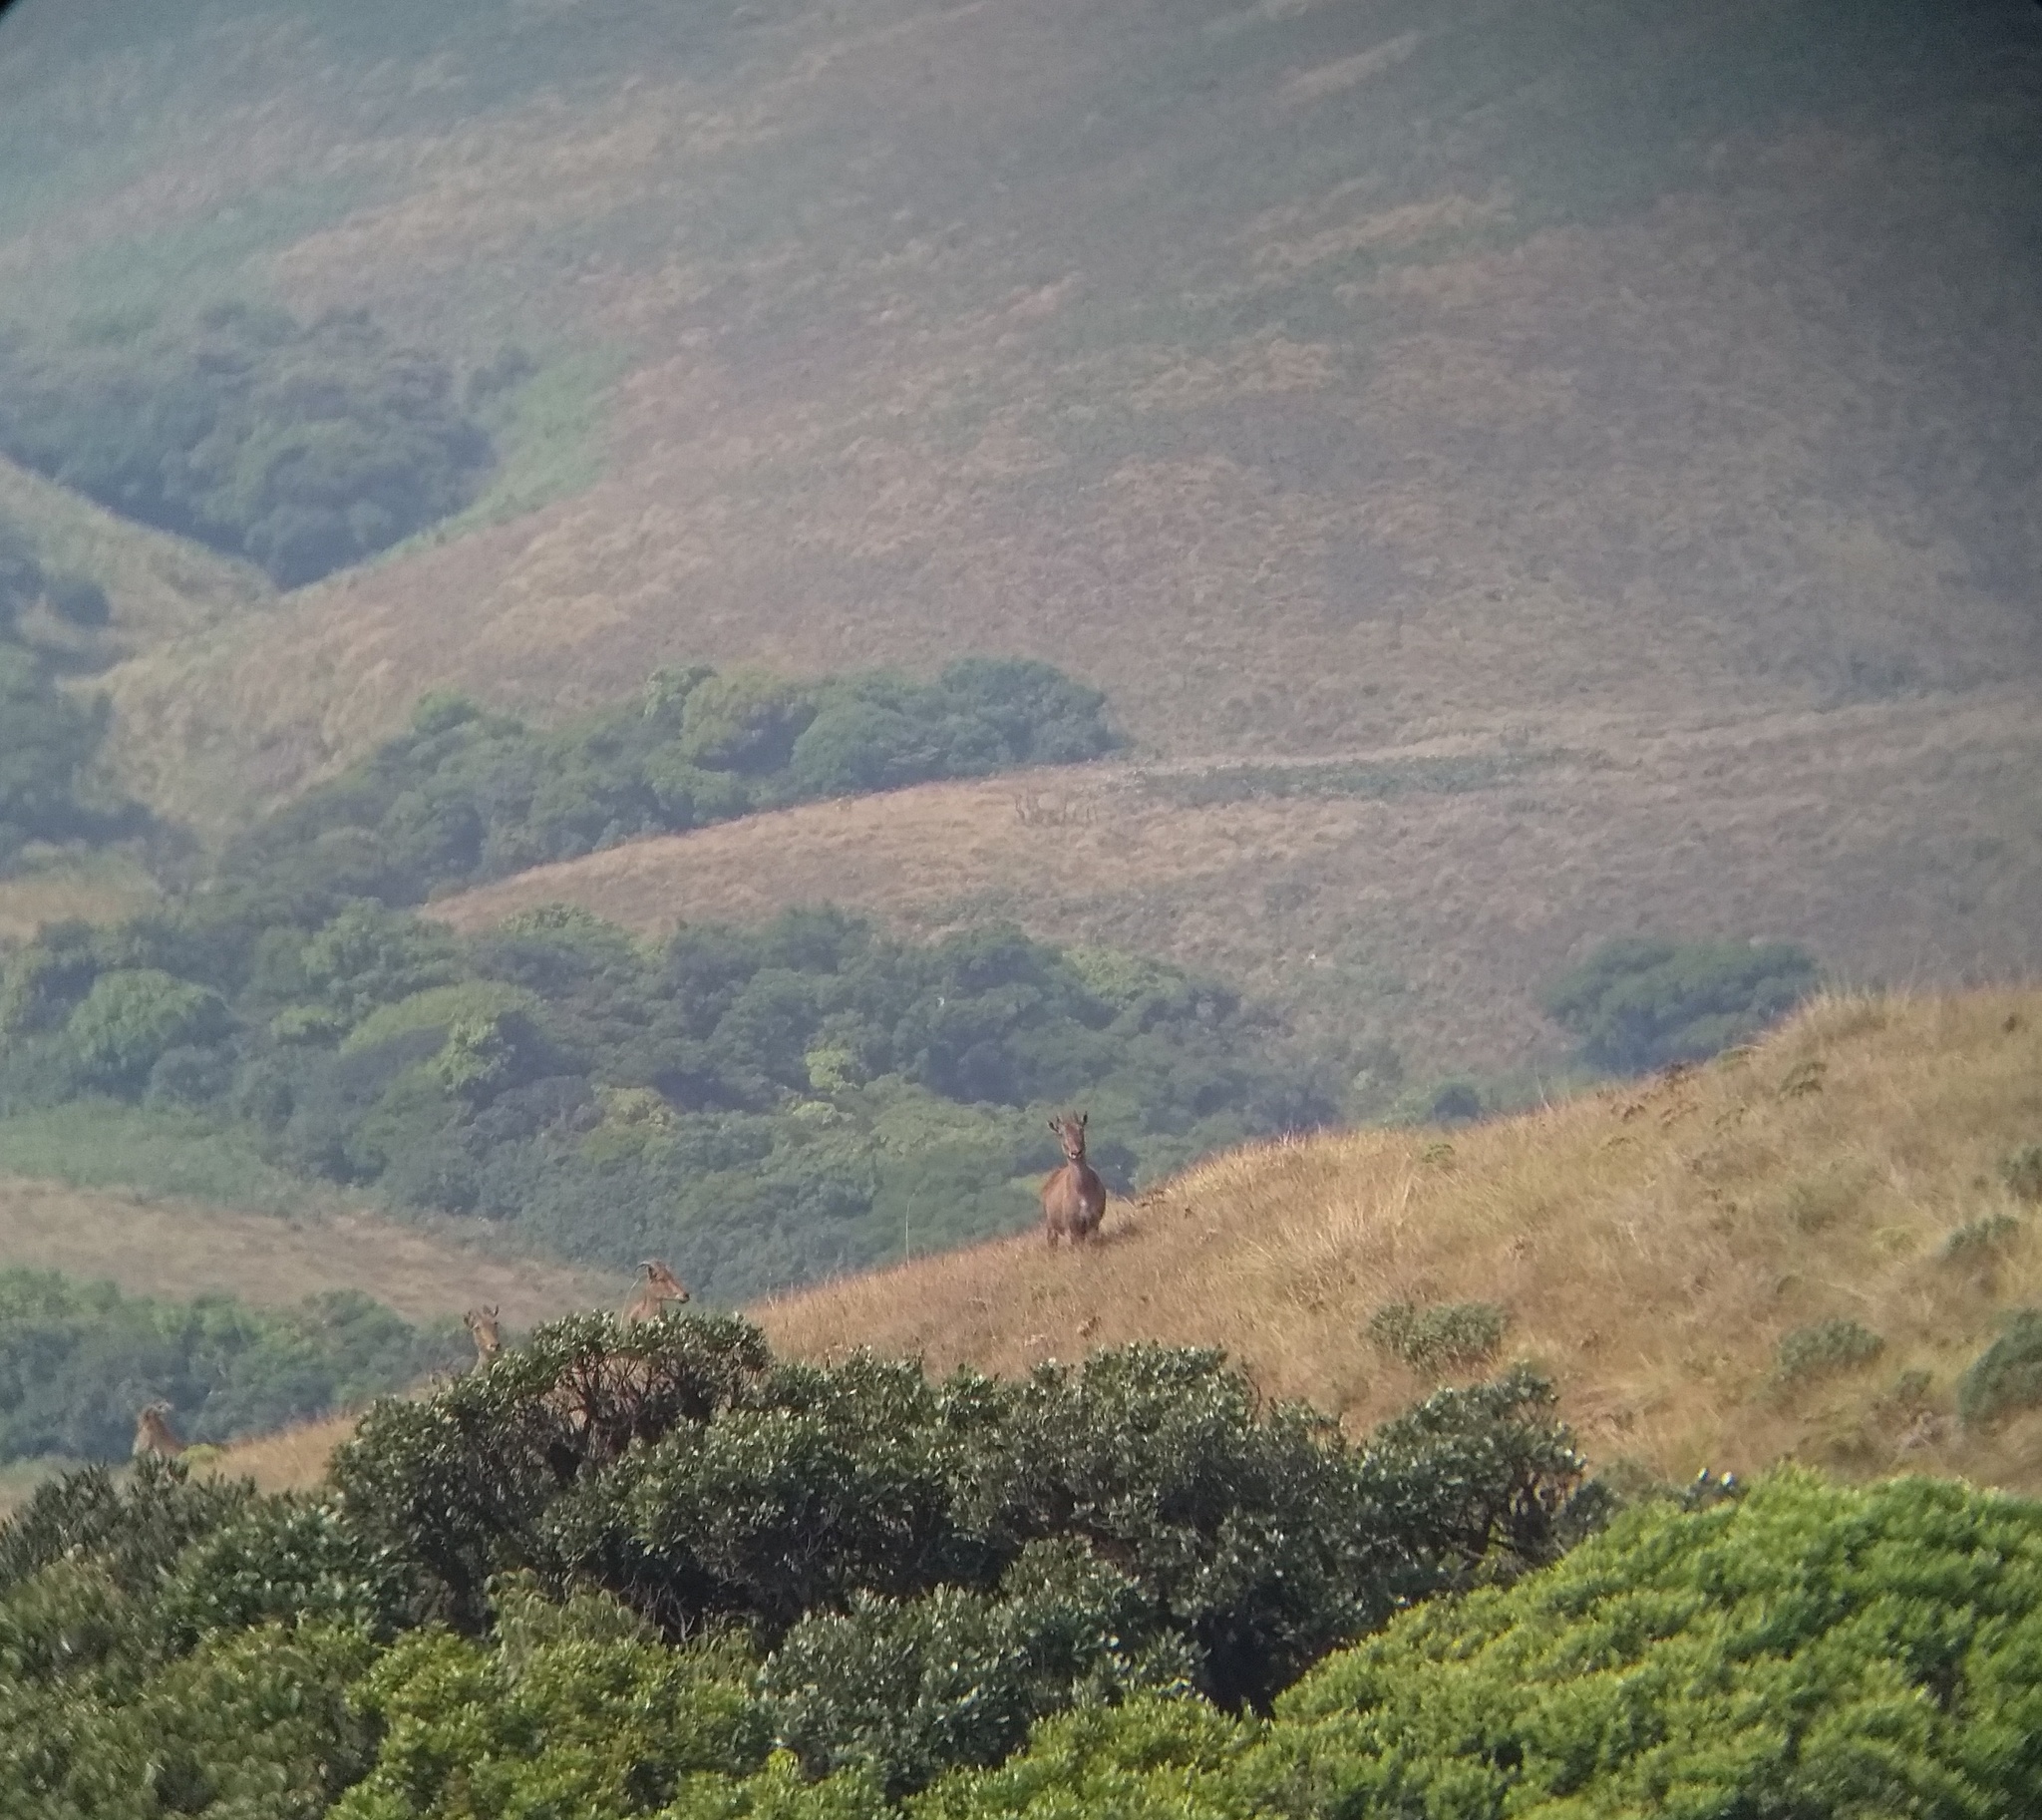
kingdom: Animalia
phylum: Chordata
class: Mammalia
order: Artiodactyla
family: Bovidae
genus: Hemitragus
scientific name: Hemitragus hylocrius
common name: Nilgiri tahr
